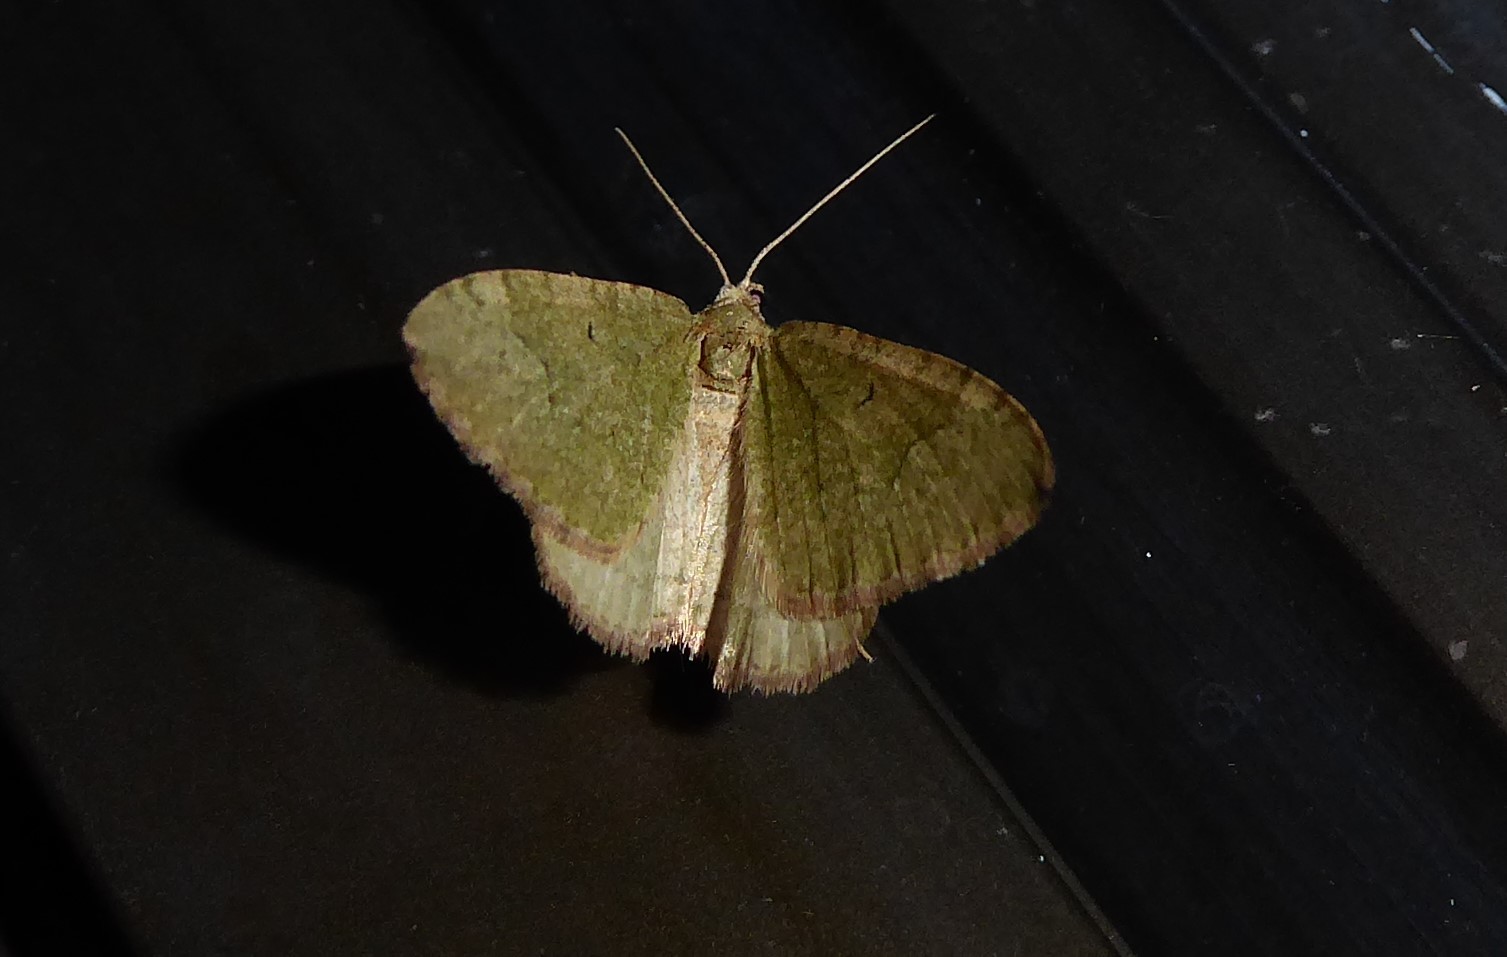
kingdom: Animalia
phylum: Arthropoda
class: Insecta
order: Lepidoptera
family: Geometridae
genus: Epyaxa
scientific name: Epyaxa rosearia
